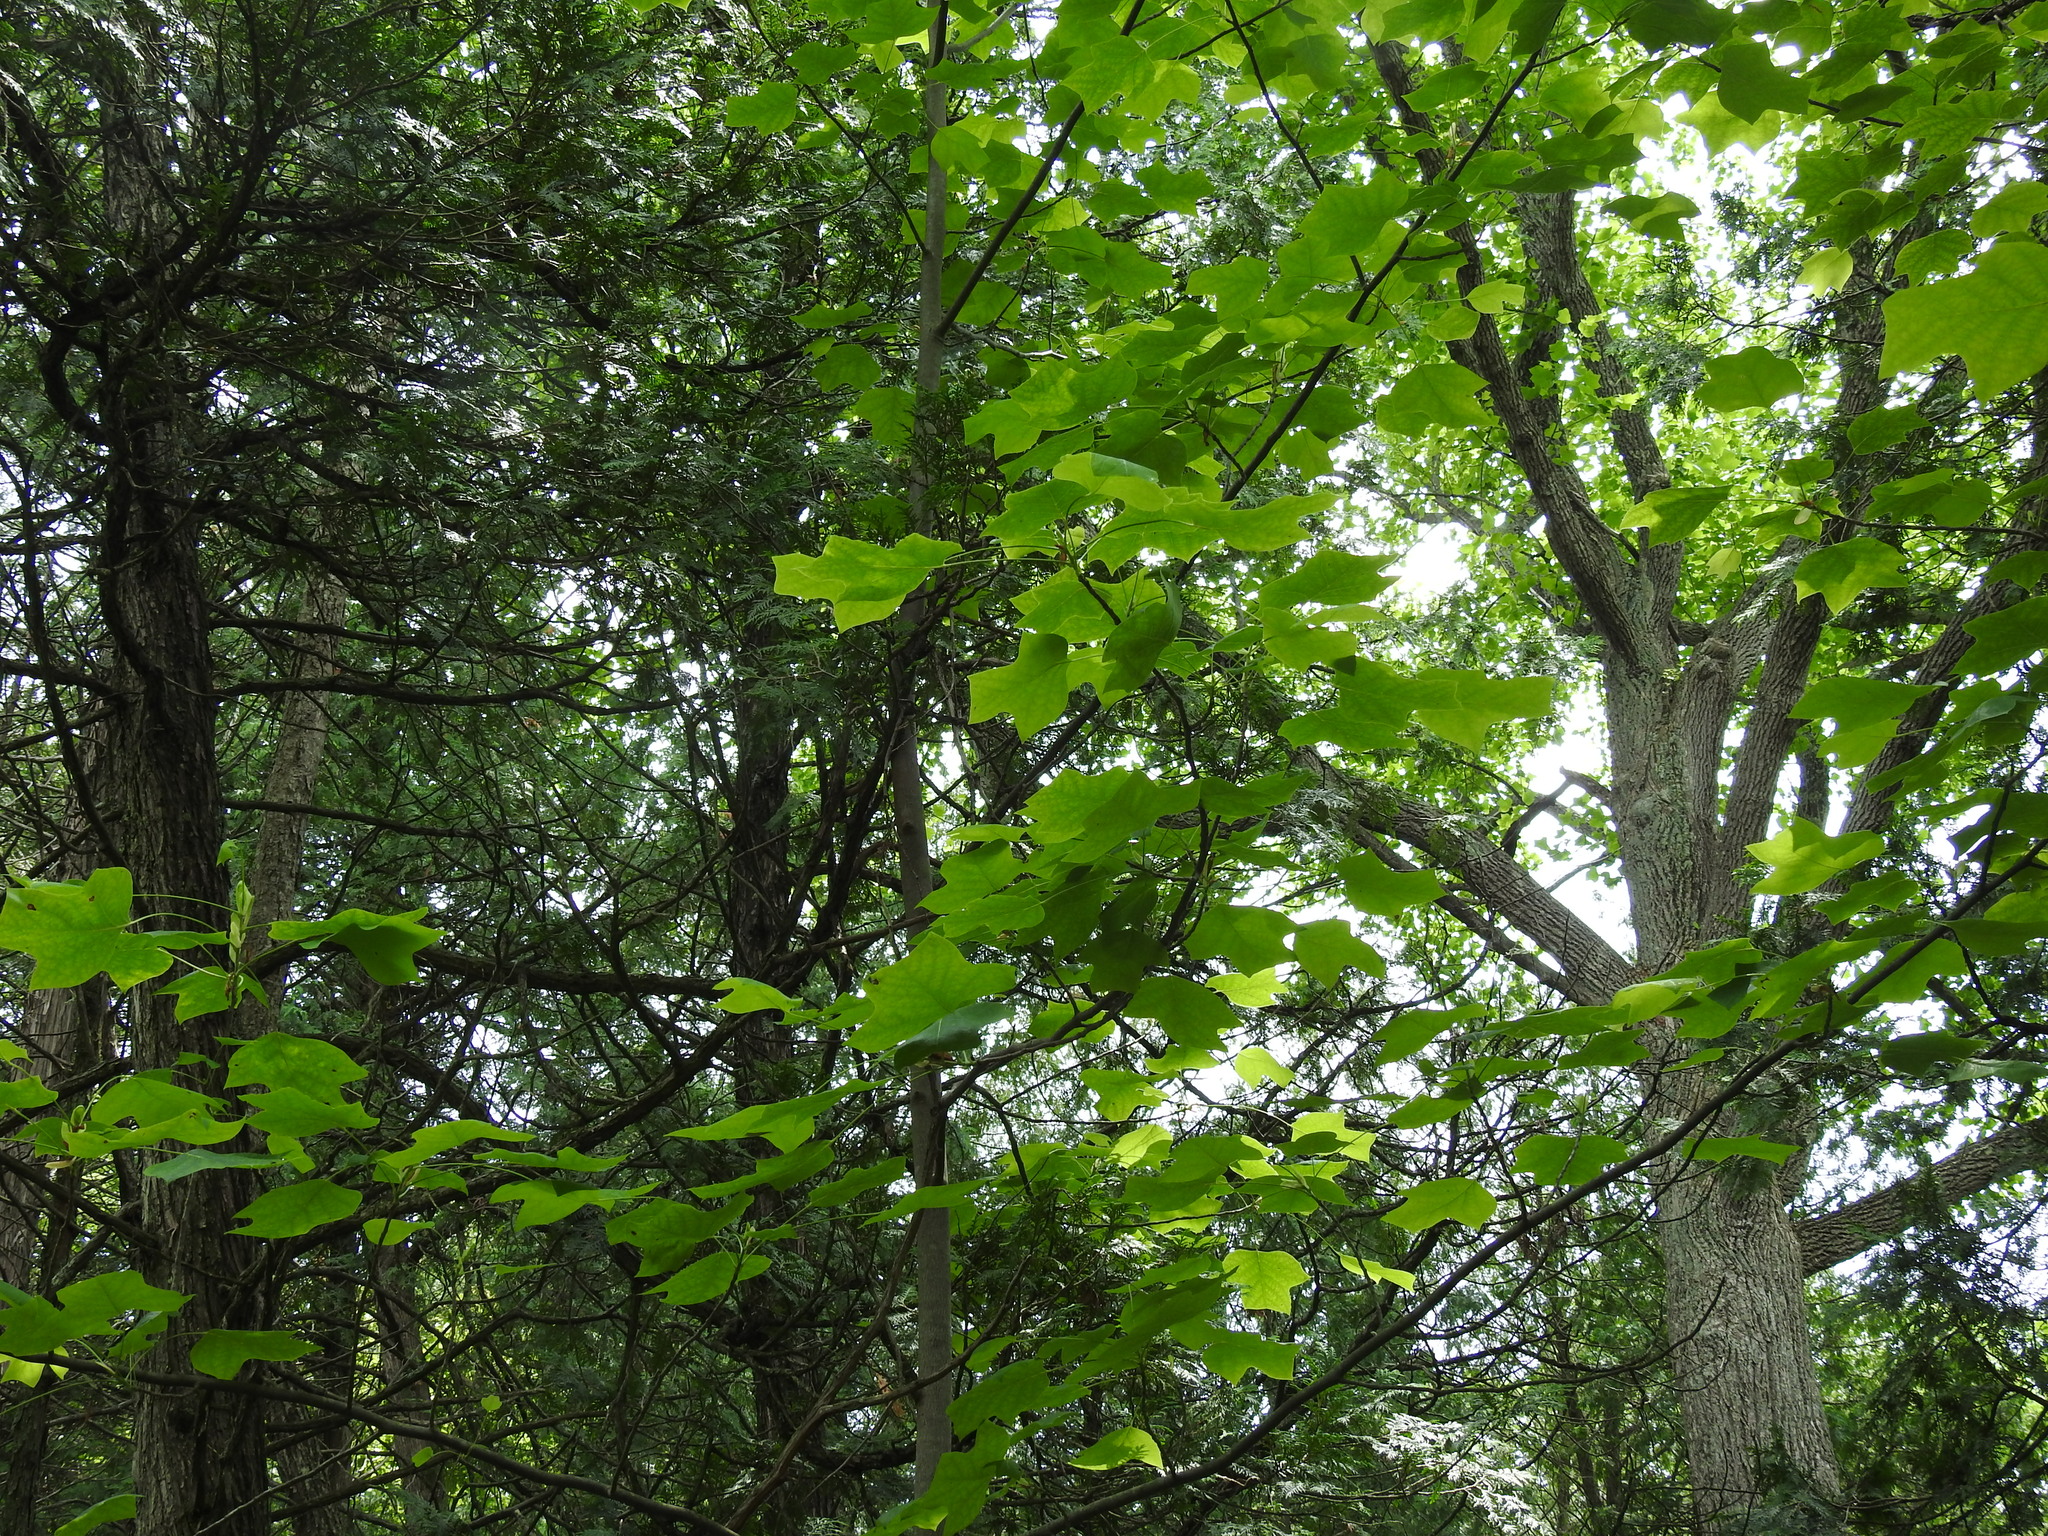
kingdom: Plantae
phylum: Tracheophyta
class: Magnoliopsida
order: Magnoliales
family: Magnoliaceae
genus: Liriodendron
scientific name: Liriodendron tulipifera
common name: Tulip tree
